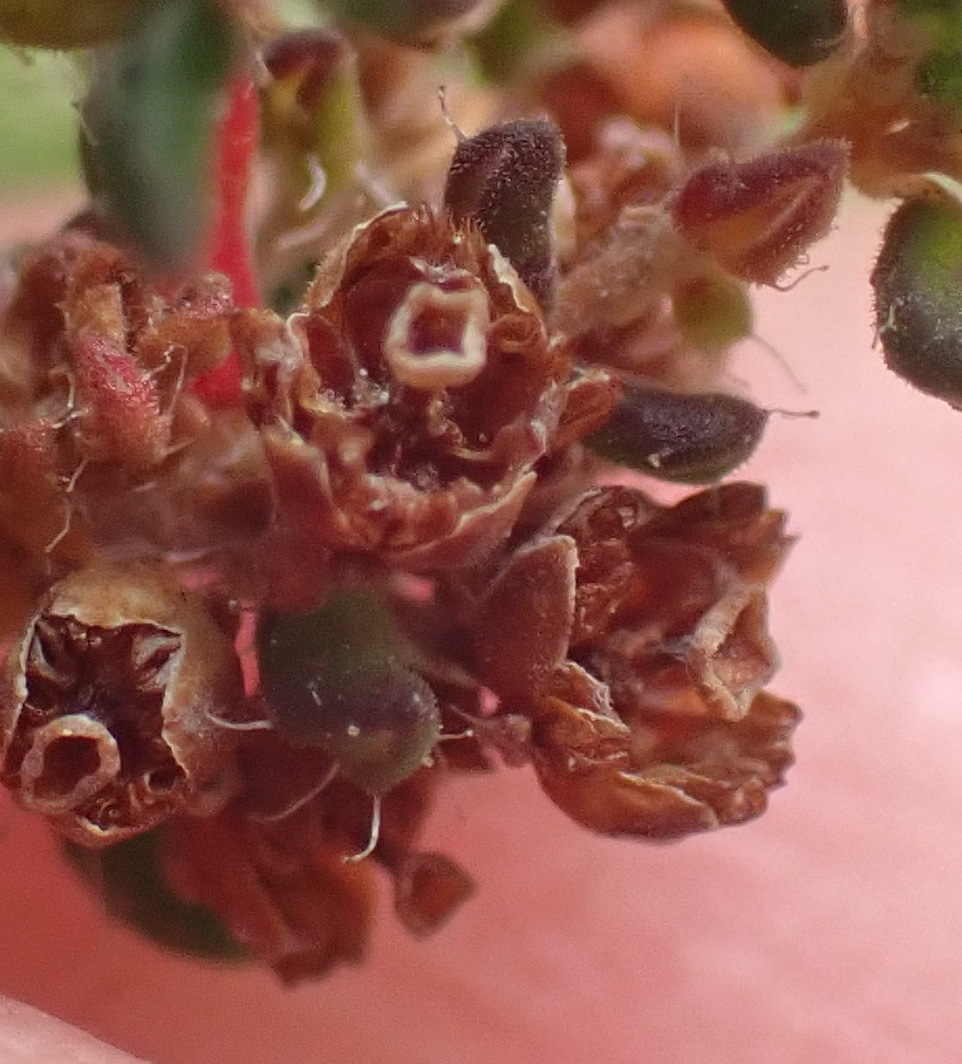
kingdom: Plantae
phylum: Tracheophyta
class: Magnoliopsida
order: Ericales
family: Ericaceae
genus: Erica
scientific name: Erica leucopelta
